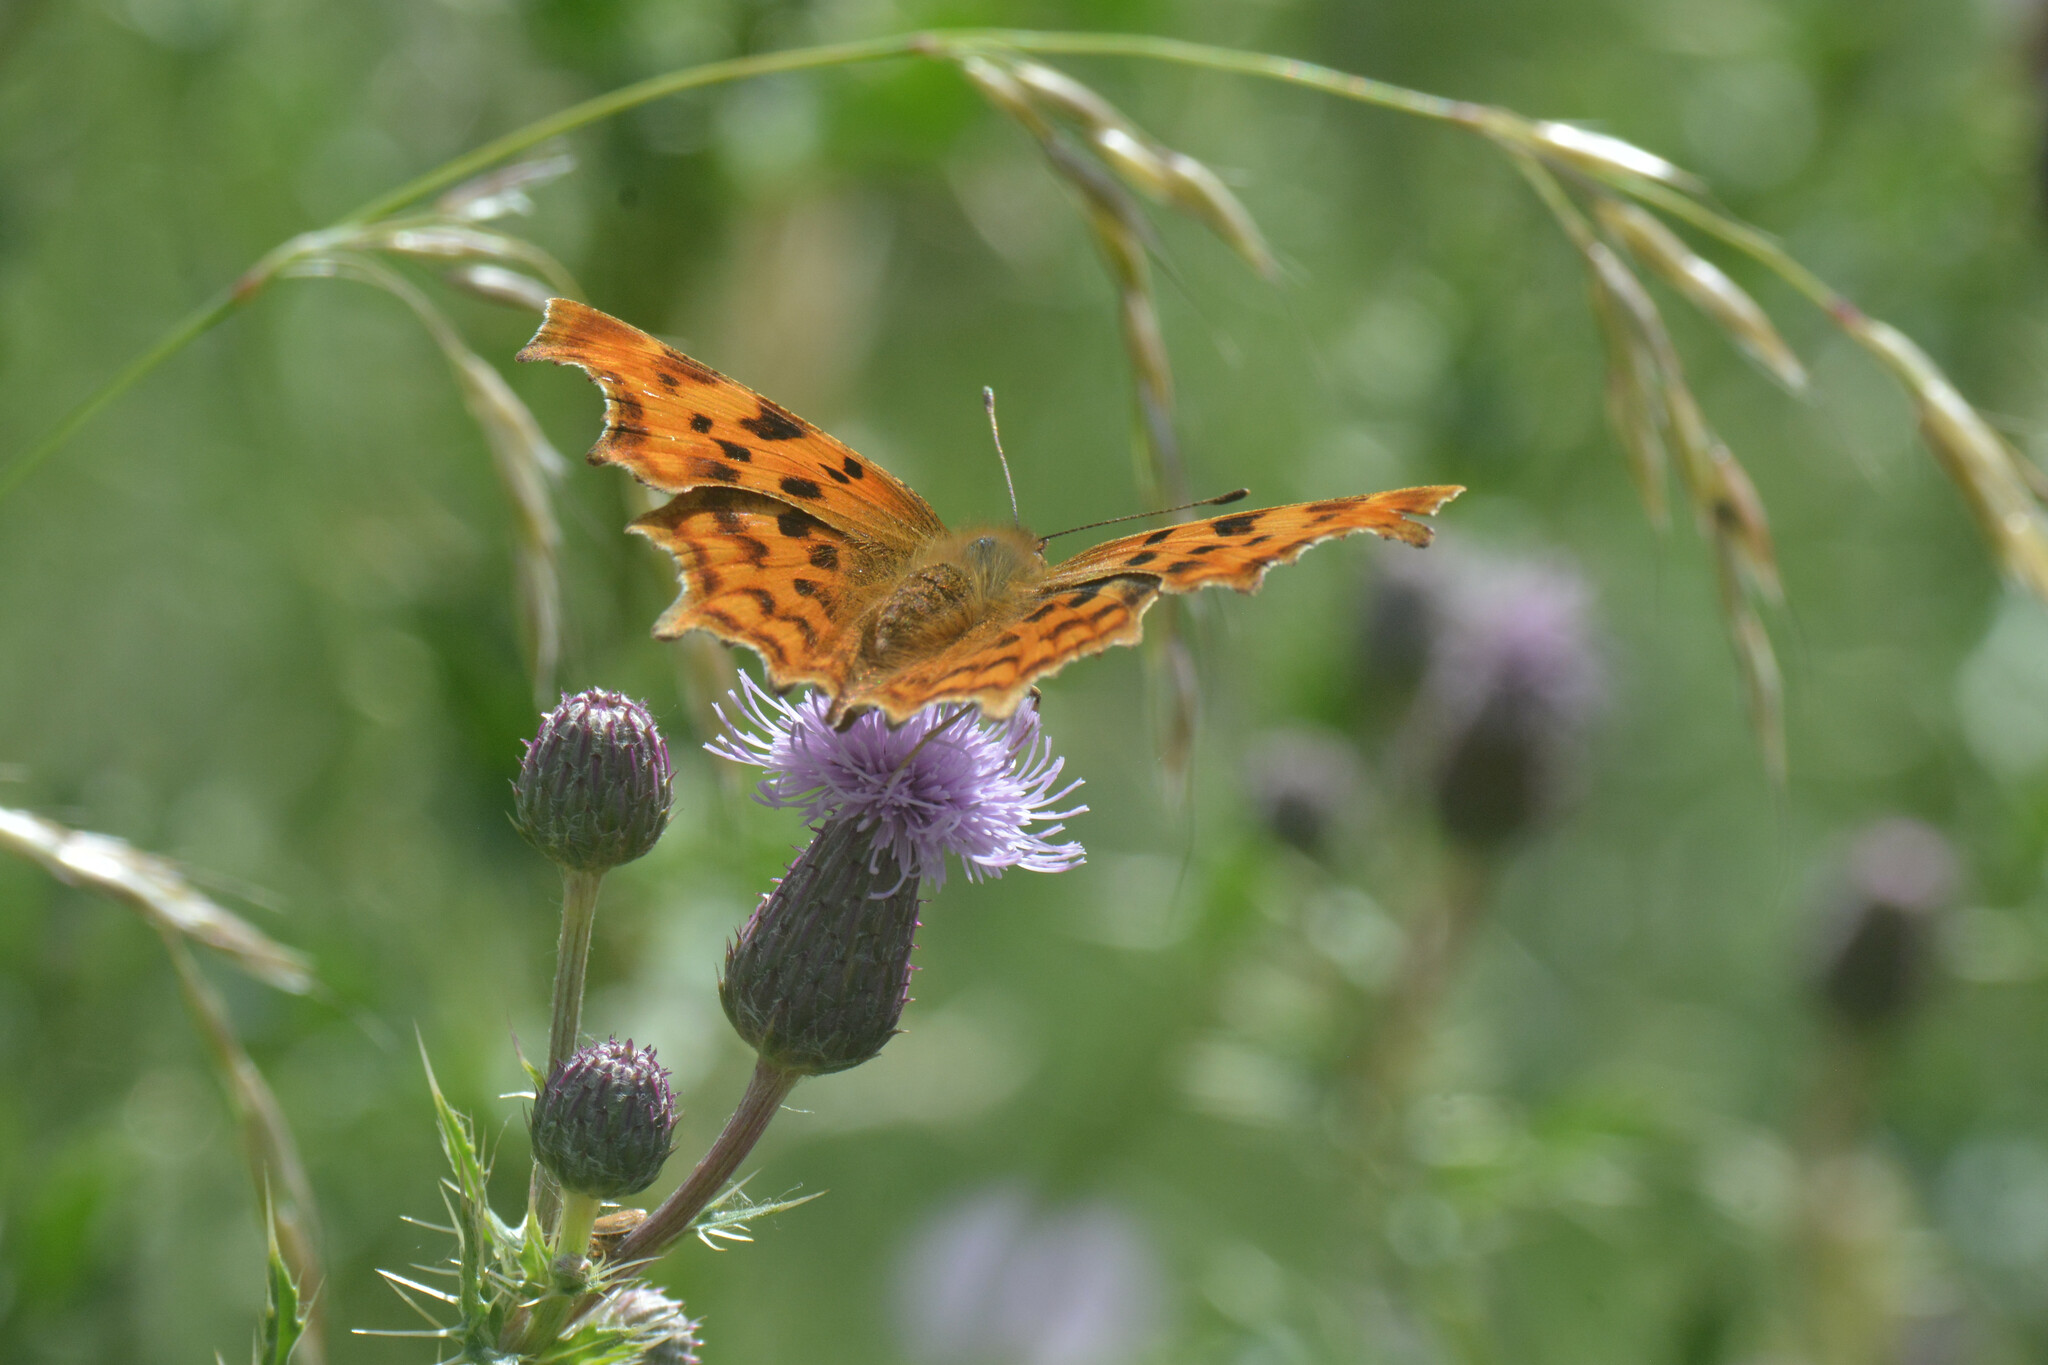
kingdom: Animalia
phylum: Arthropoda
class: Insecta
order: Lepidoptera
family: Nymphalidae
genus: Polygonia
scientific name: Polygonia c-album
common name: Comma
